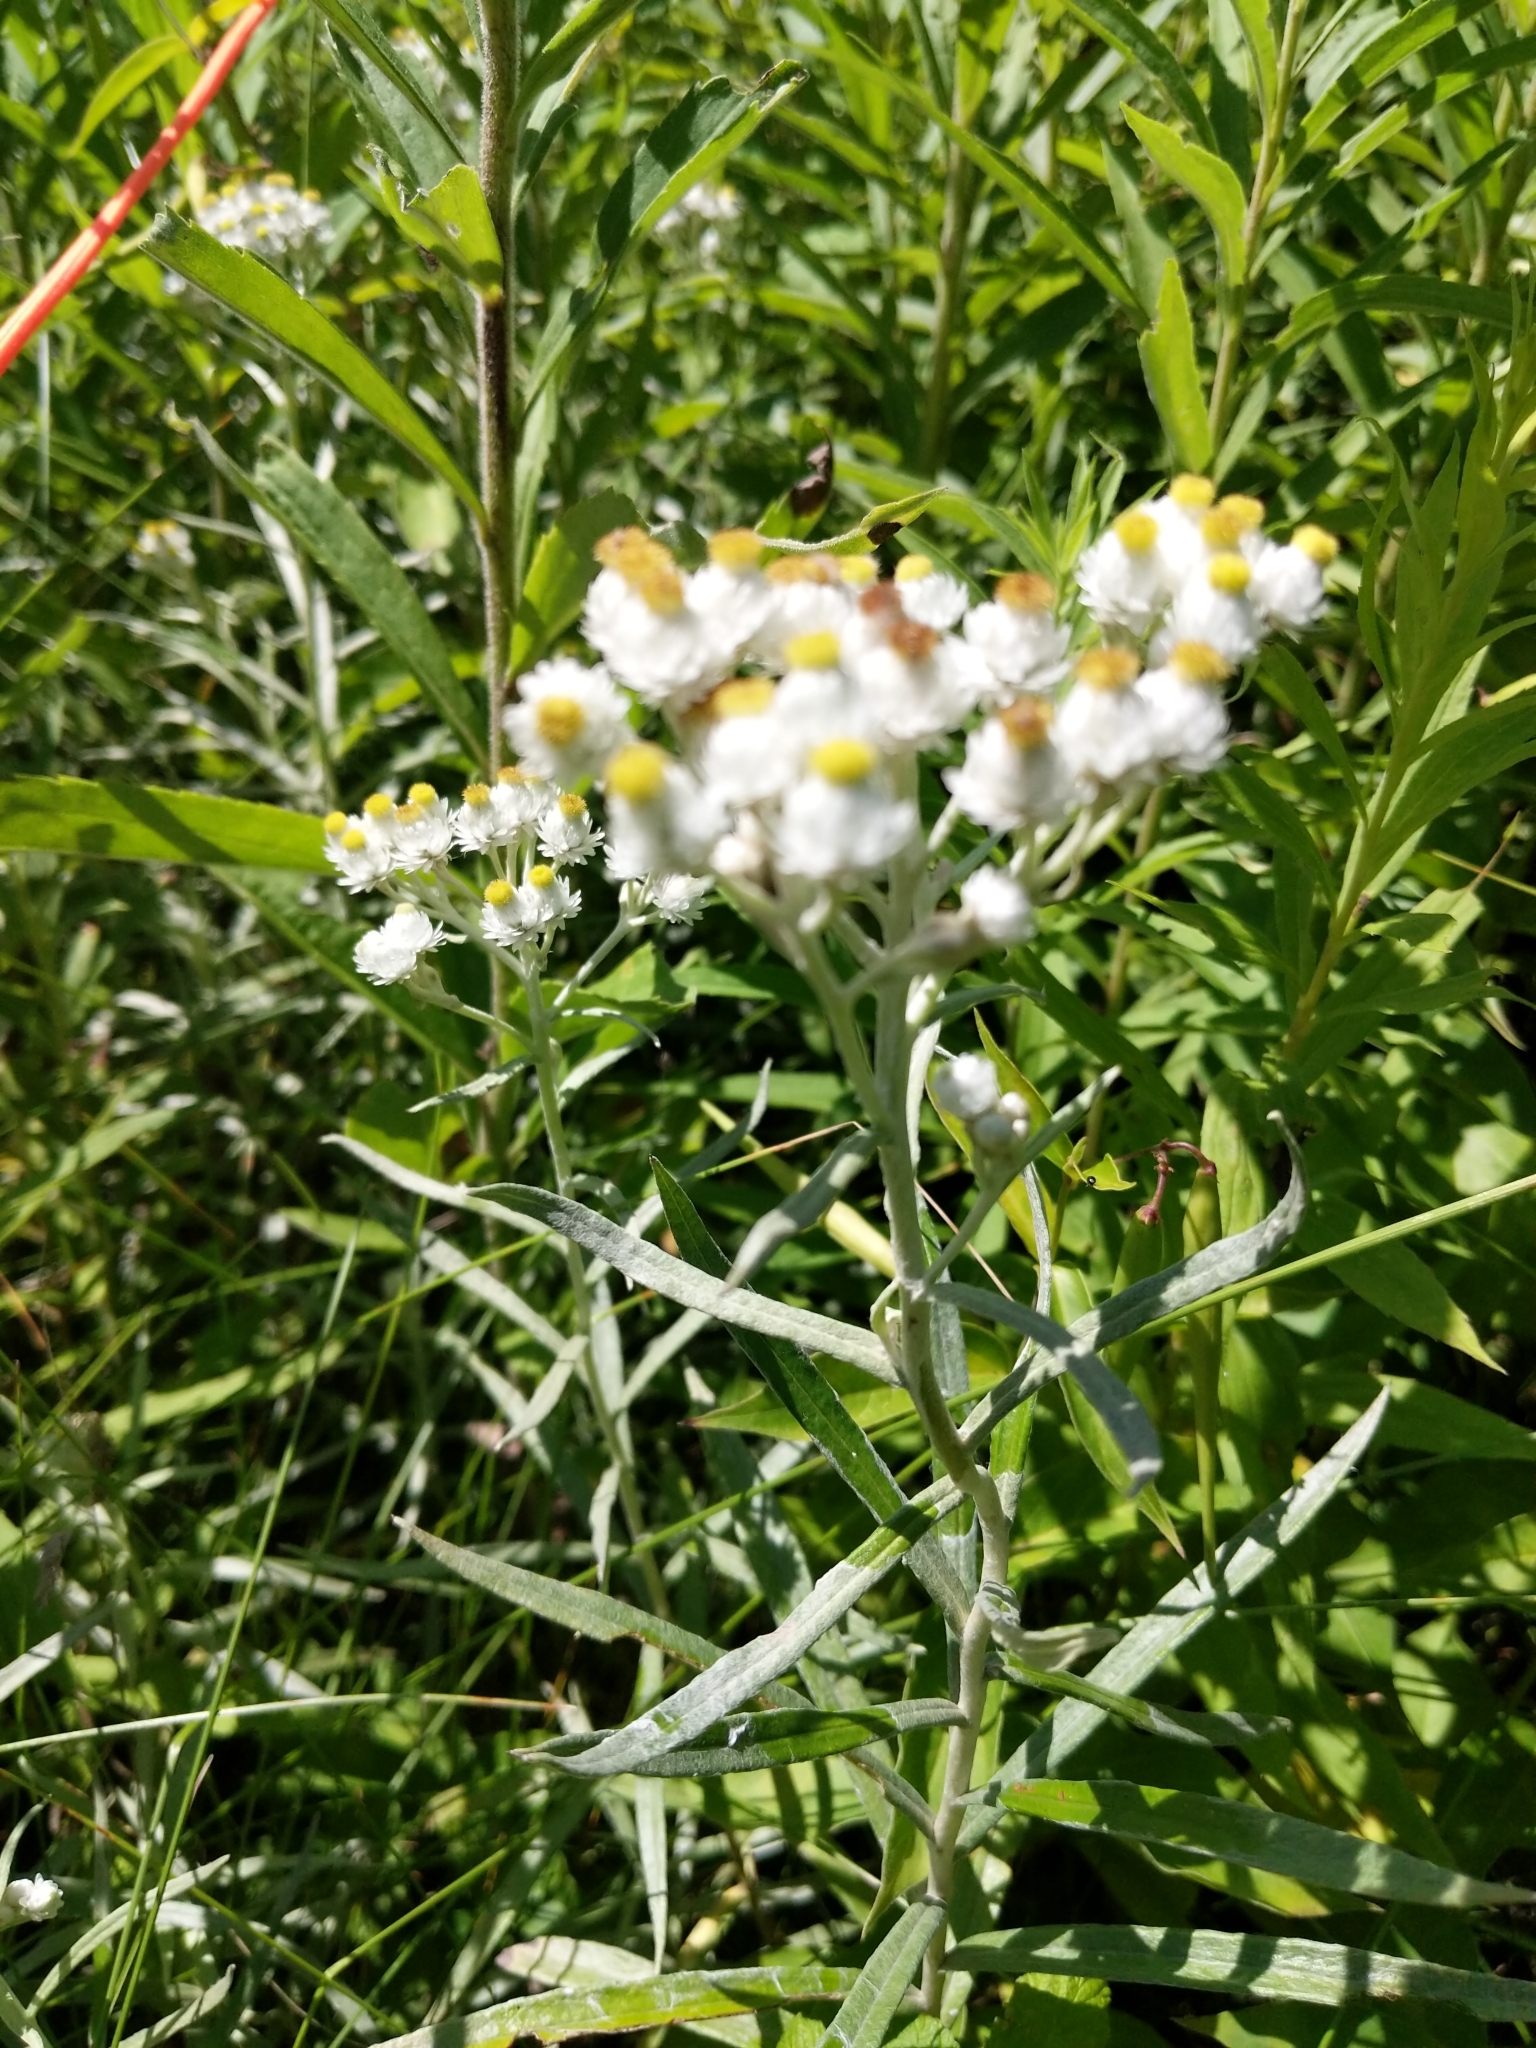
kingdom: Plantae
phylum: Tracheophyta
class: Magnoliopsida
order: Asterales
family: Asteraceae
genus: Anaphalis
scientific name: Anaphalis margaritacea
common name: Pearly everlasting
